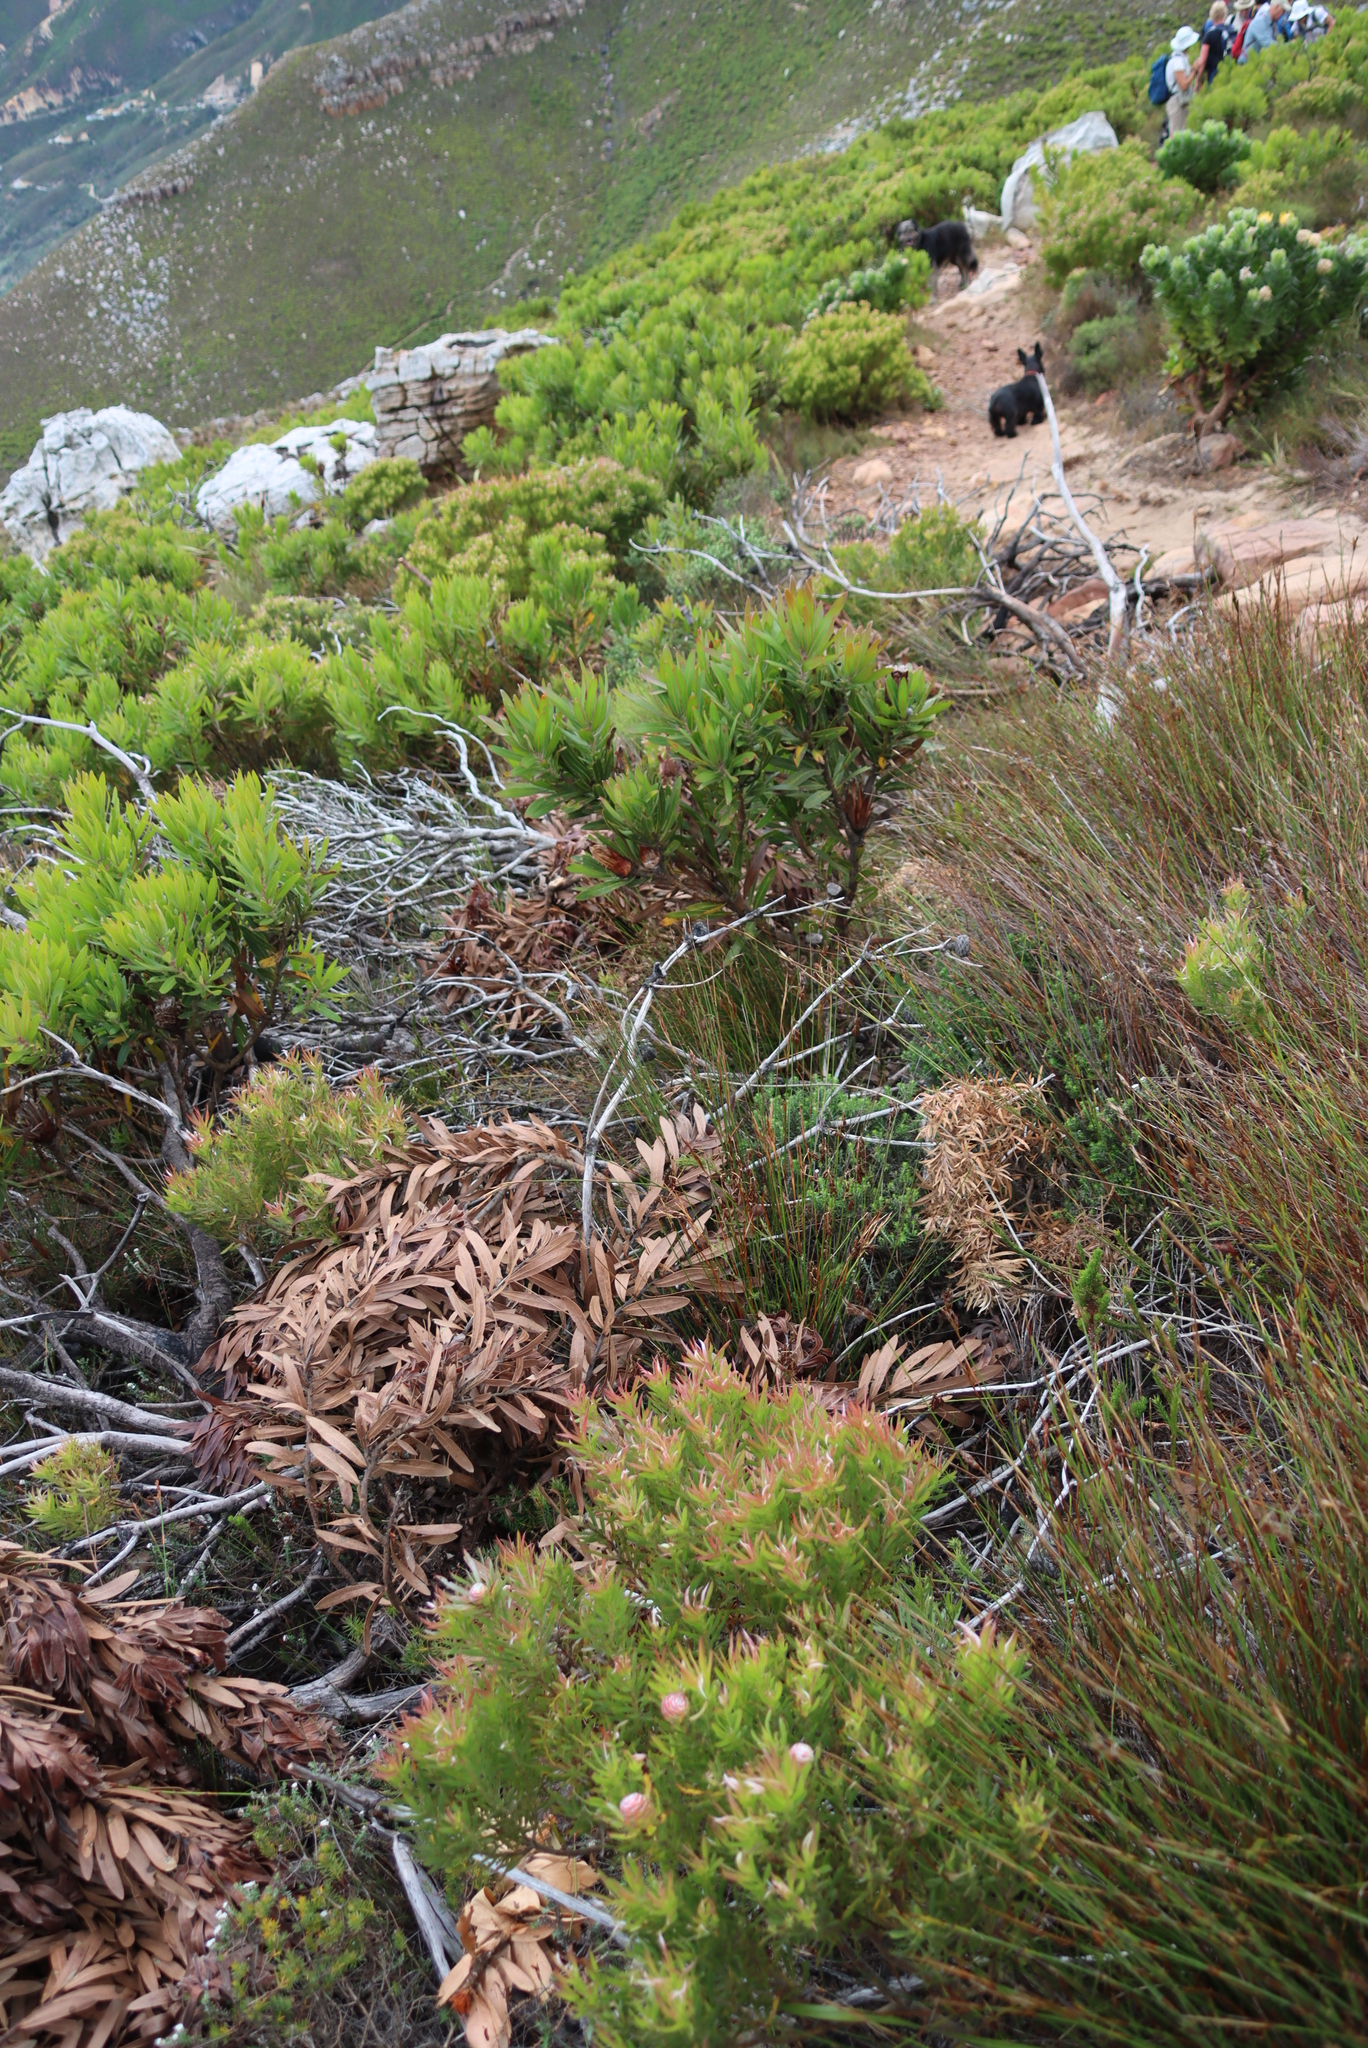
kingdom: Plantae
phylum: Tracheophyta
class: Magnoliopsida
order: Proteales
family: Proteaceae
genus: Protea
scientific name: Protea lepidocarpodendron
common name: Black-bearded protea
